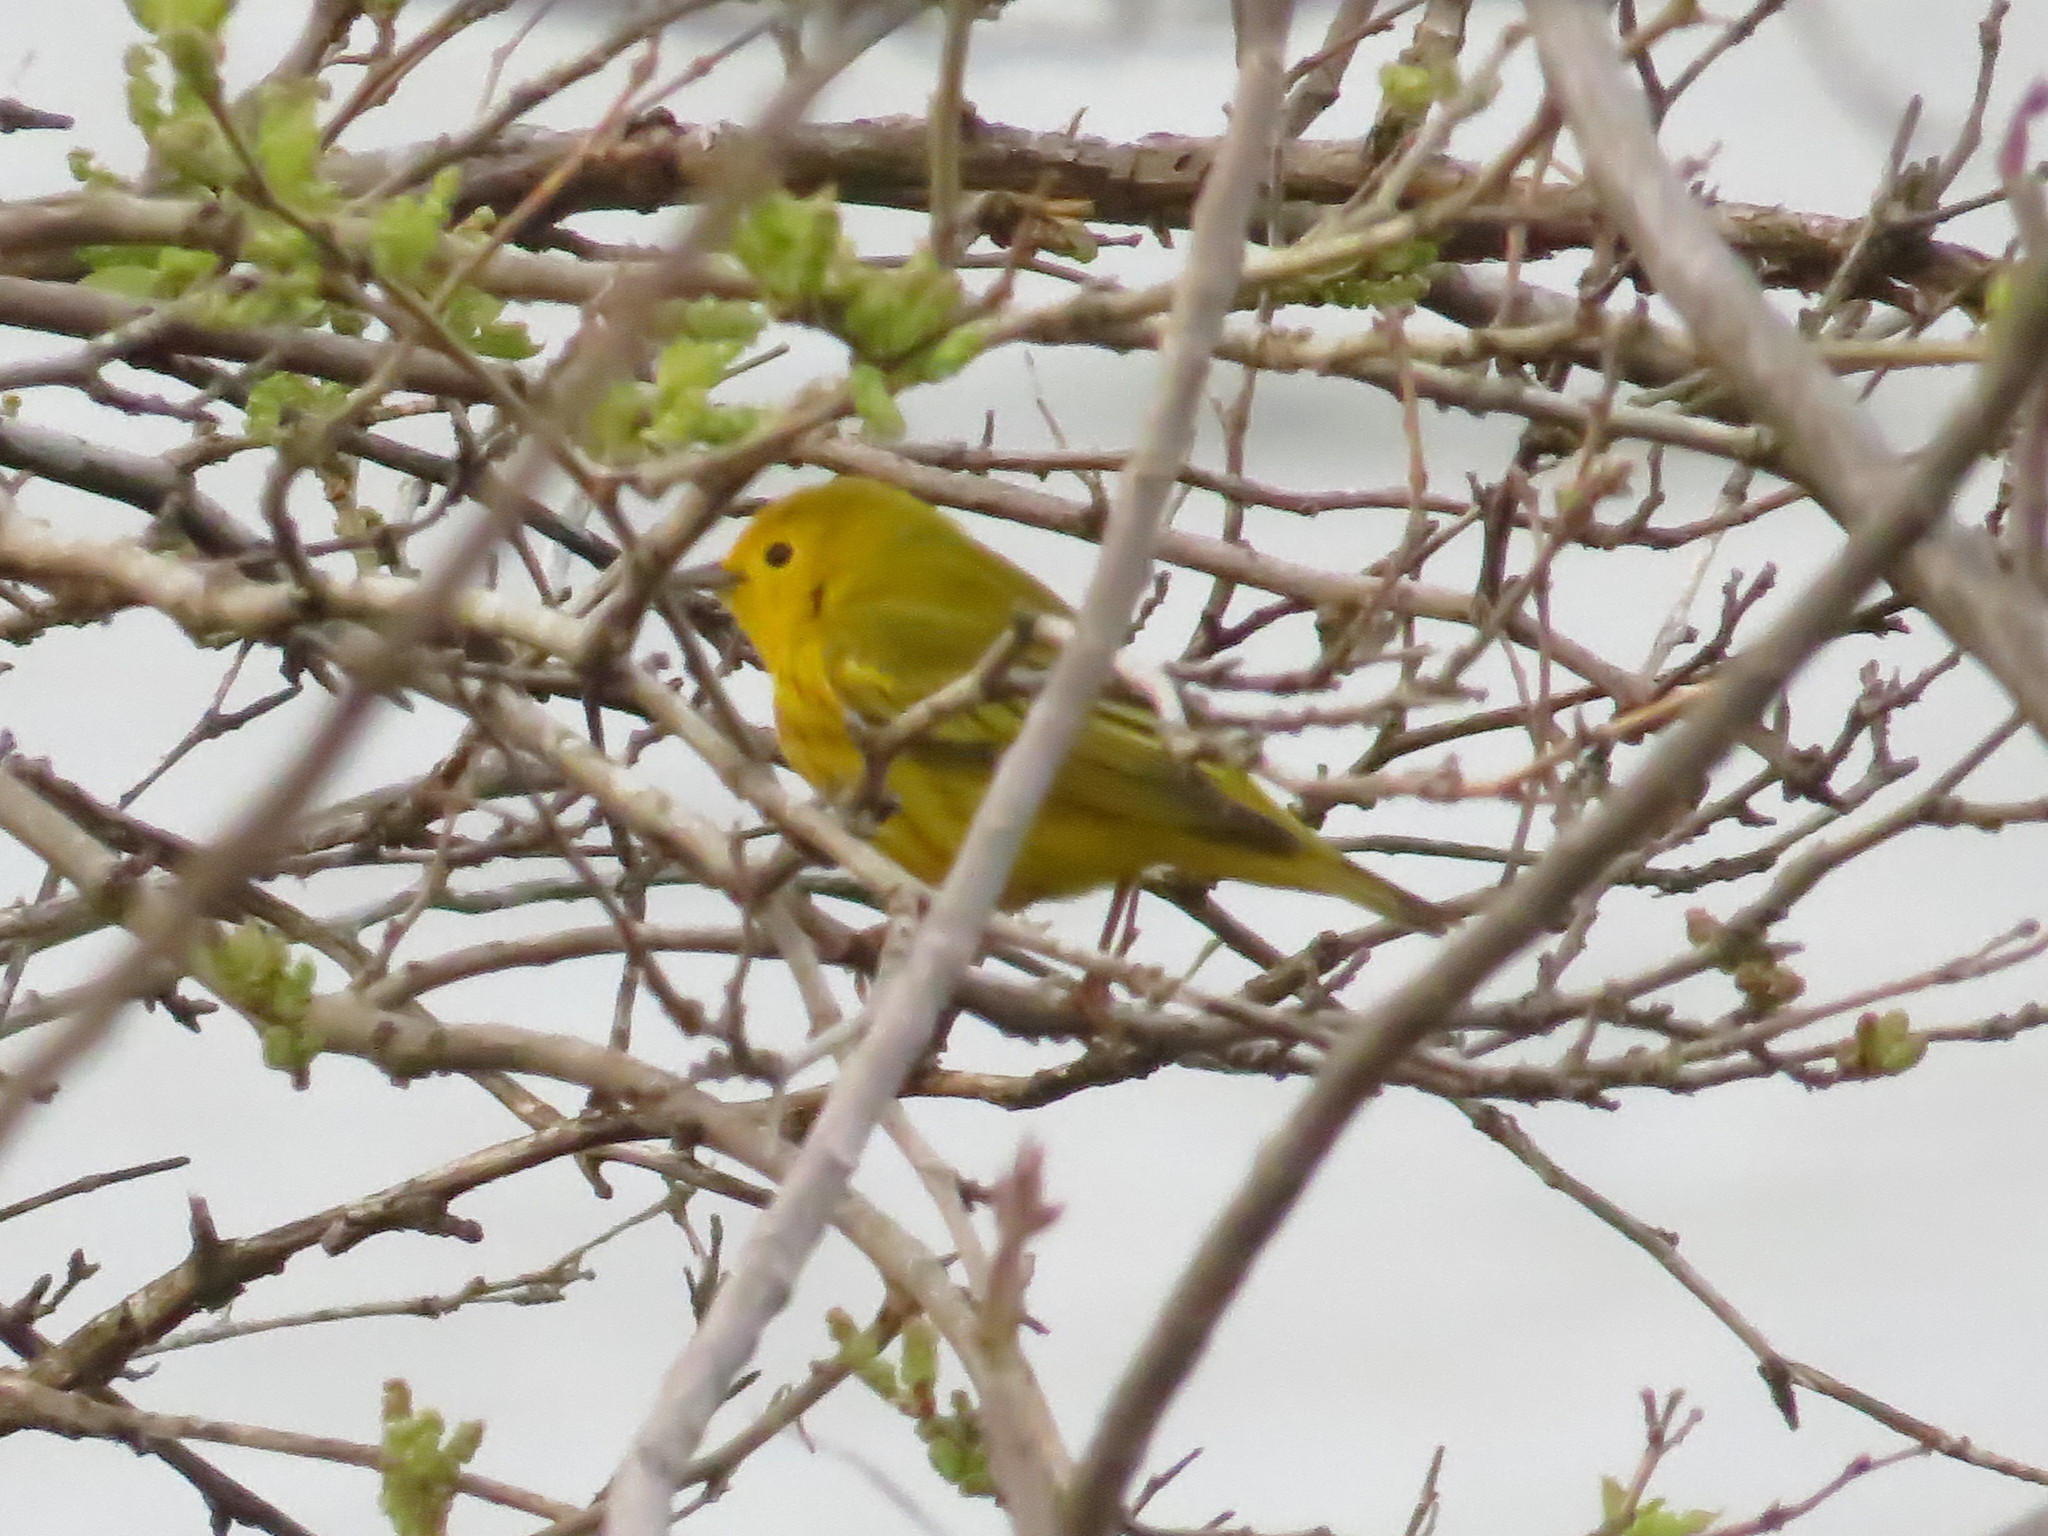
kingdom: Animalia
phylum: Chordata
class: Aves
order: Passeriformes
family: Parulidae
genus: Setophaga
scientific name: Setophaga petechia
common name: Yellow warbler
